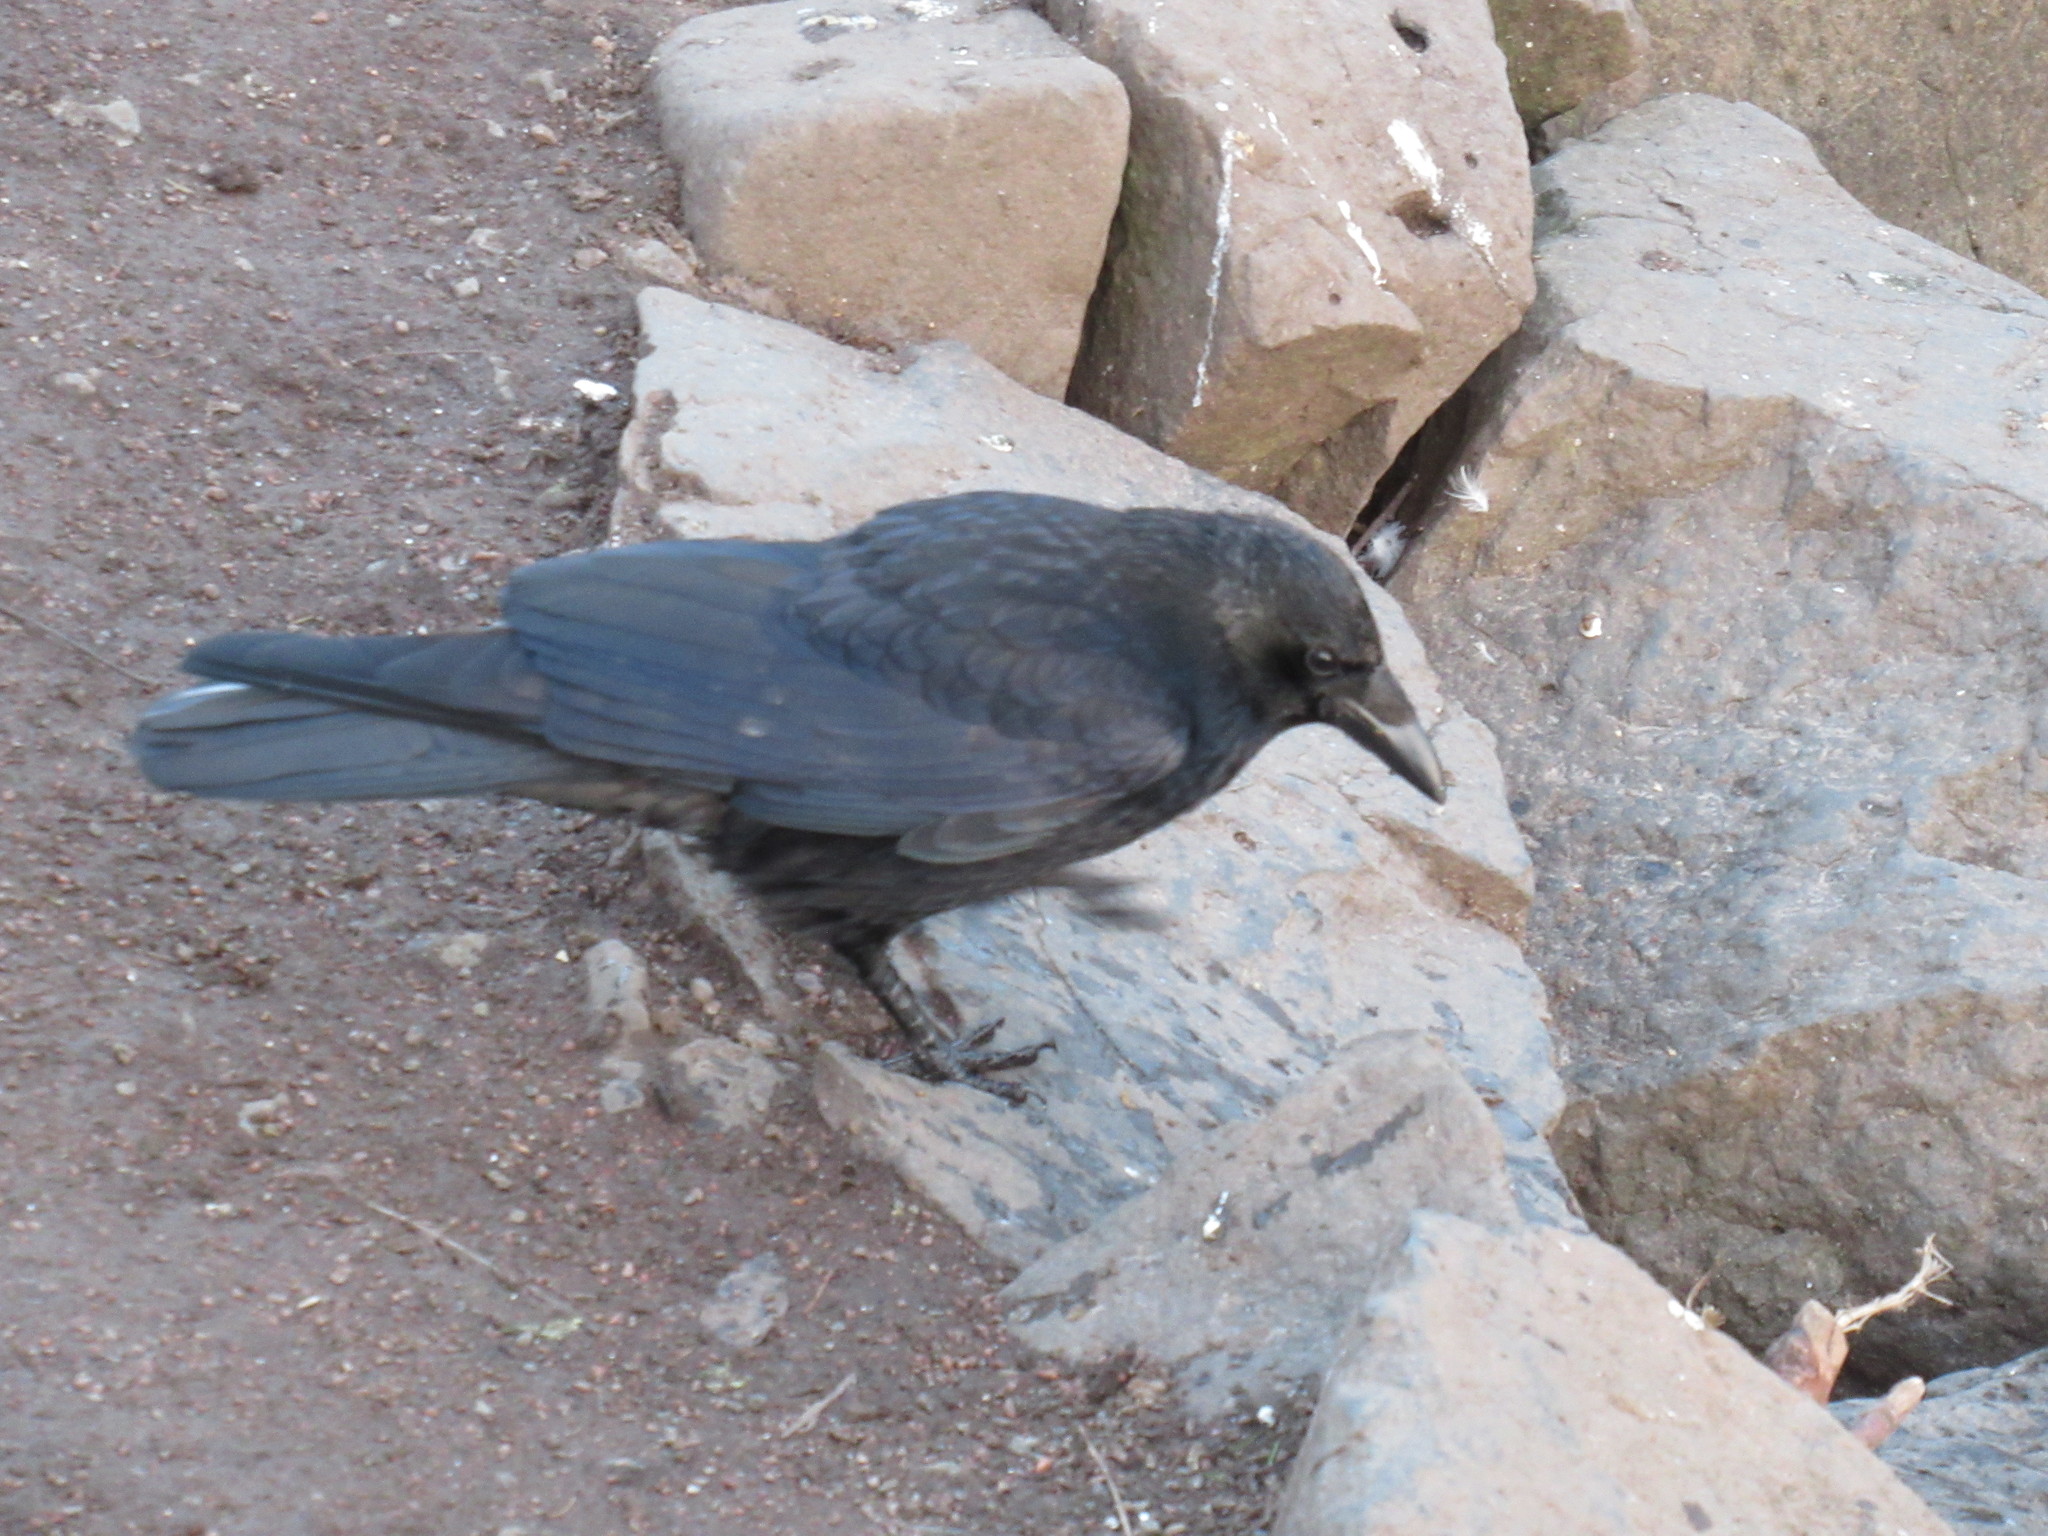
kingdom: Animalia
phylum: Chordata
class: Aves
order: Passeriformes
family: Corvidae
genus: Corvus
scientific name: Corvus corone
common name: Carrion crow
